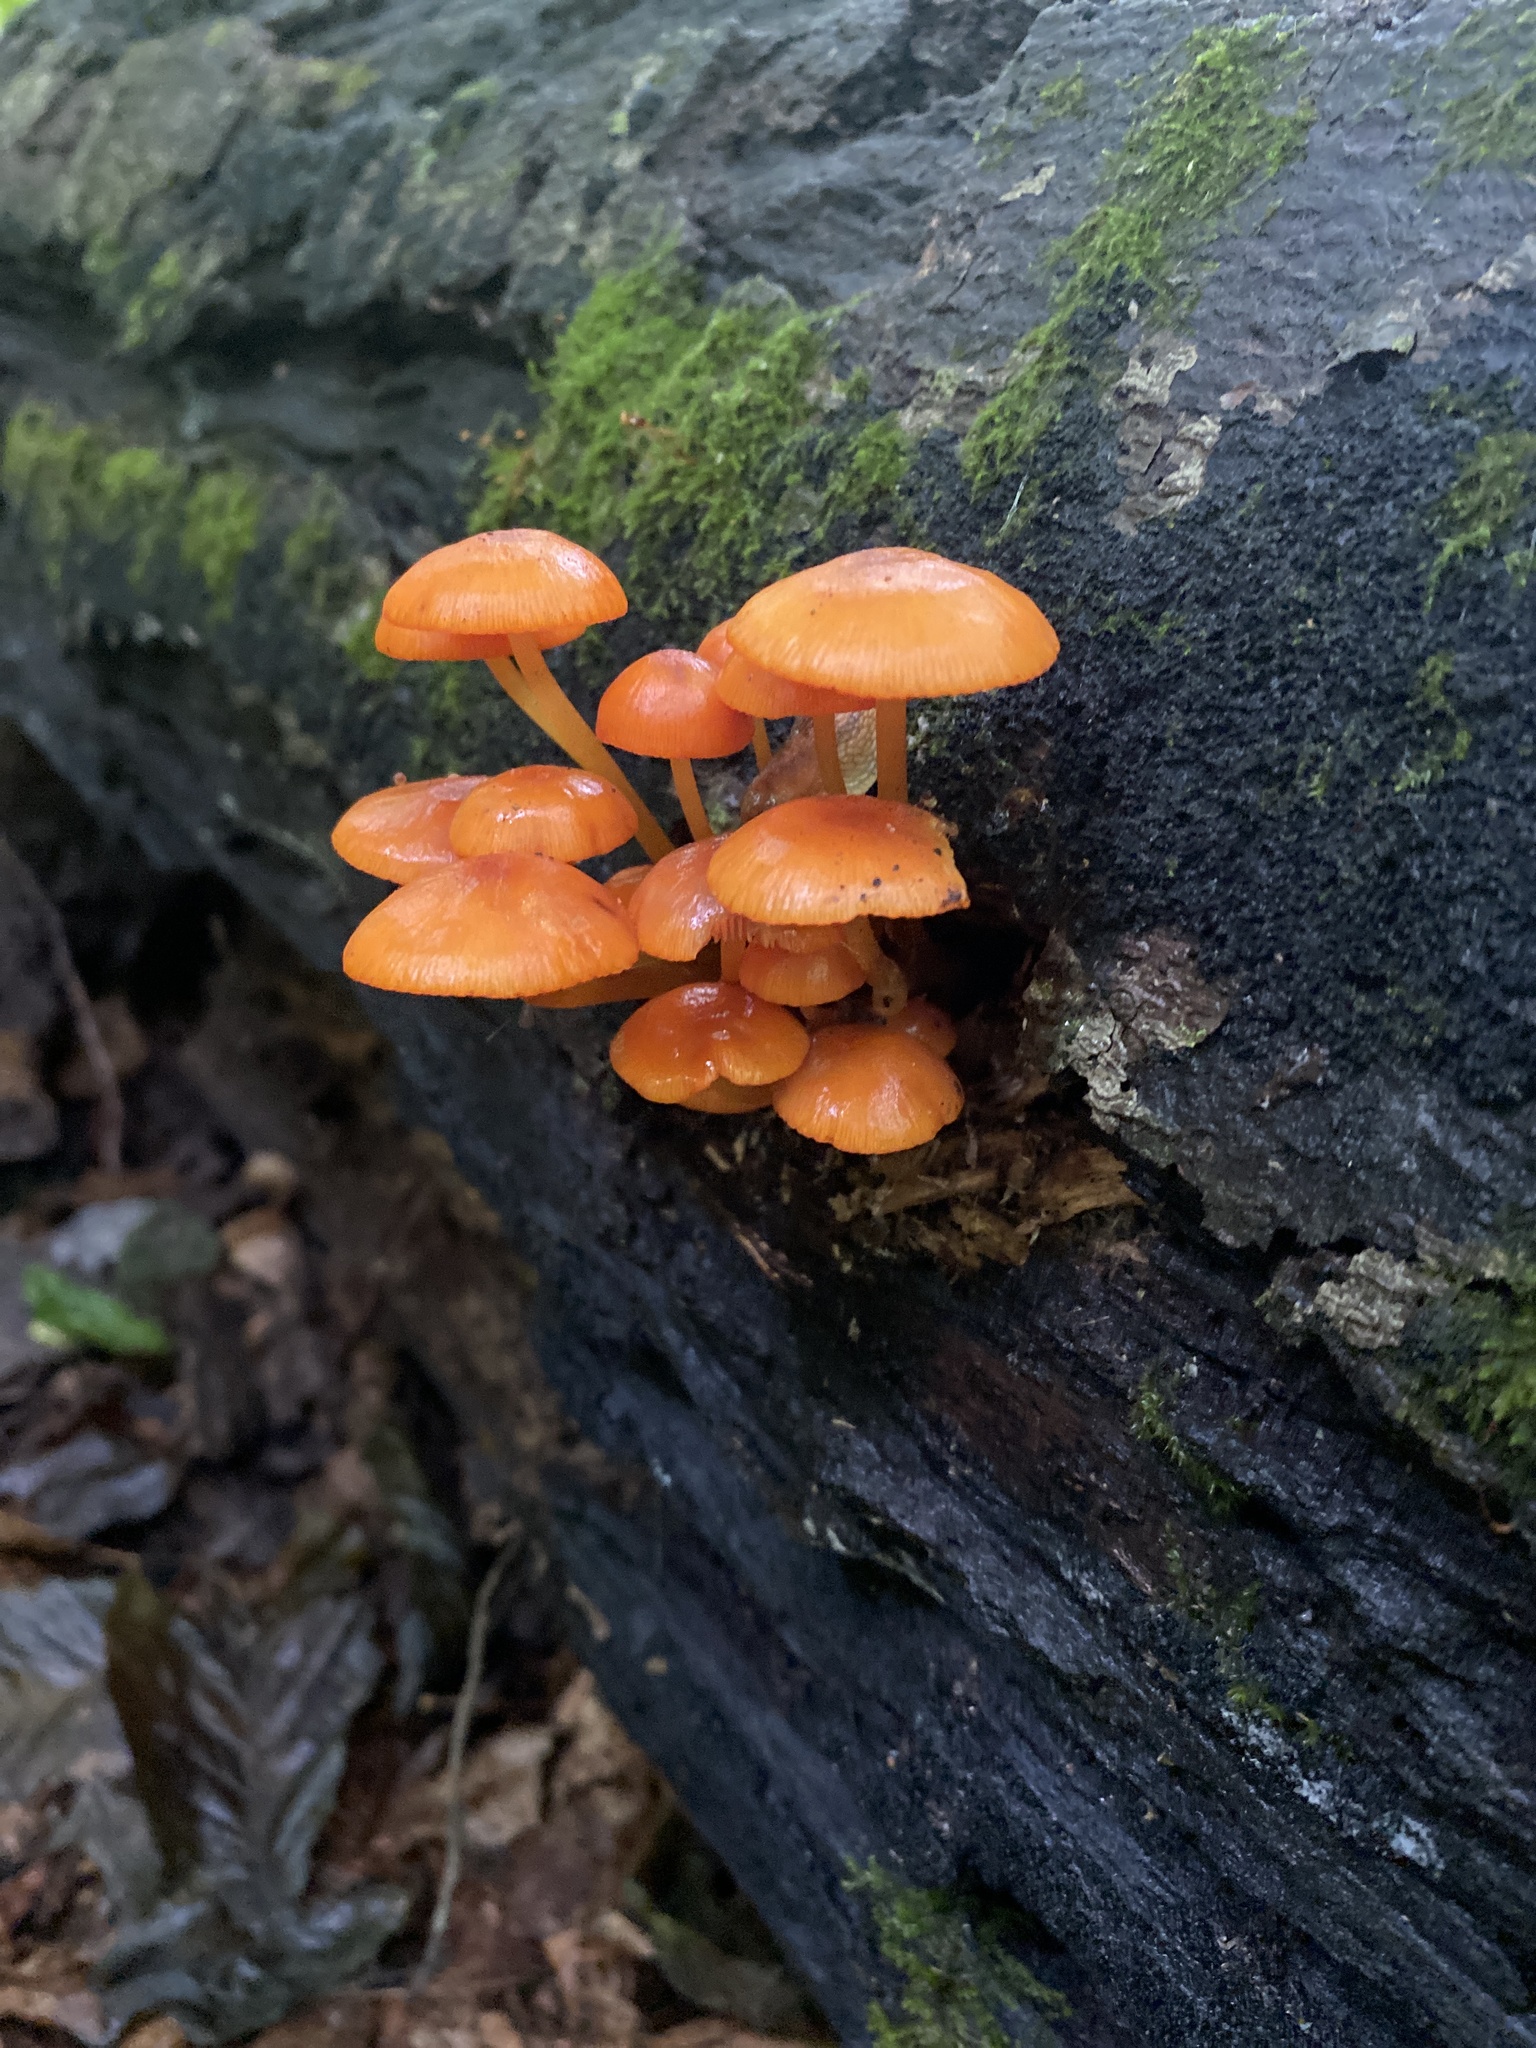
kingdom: Fungi
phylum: Basidiomycota
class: Agaricomycetes
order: Agaricales
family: Mycenaceae
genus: Mycena
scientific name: Mycena leaiana
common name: Orange mycena
